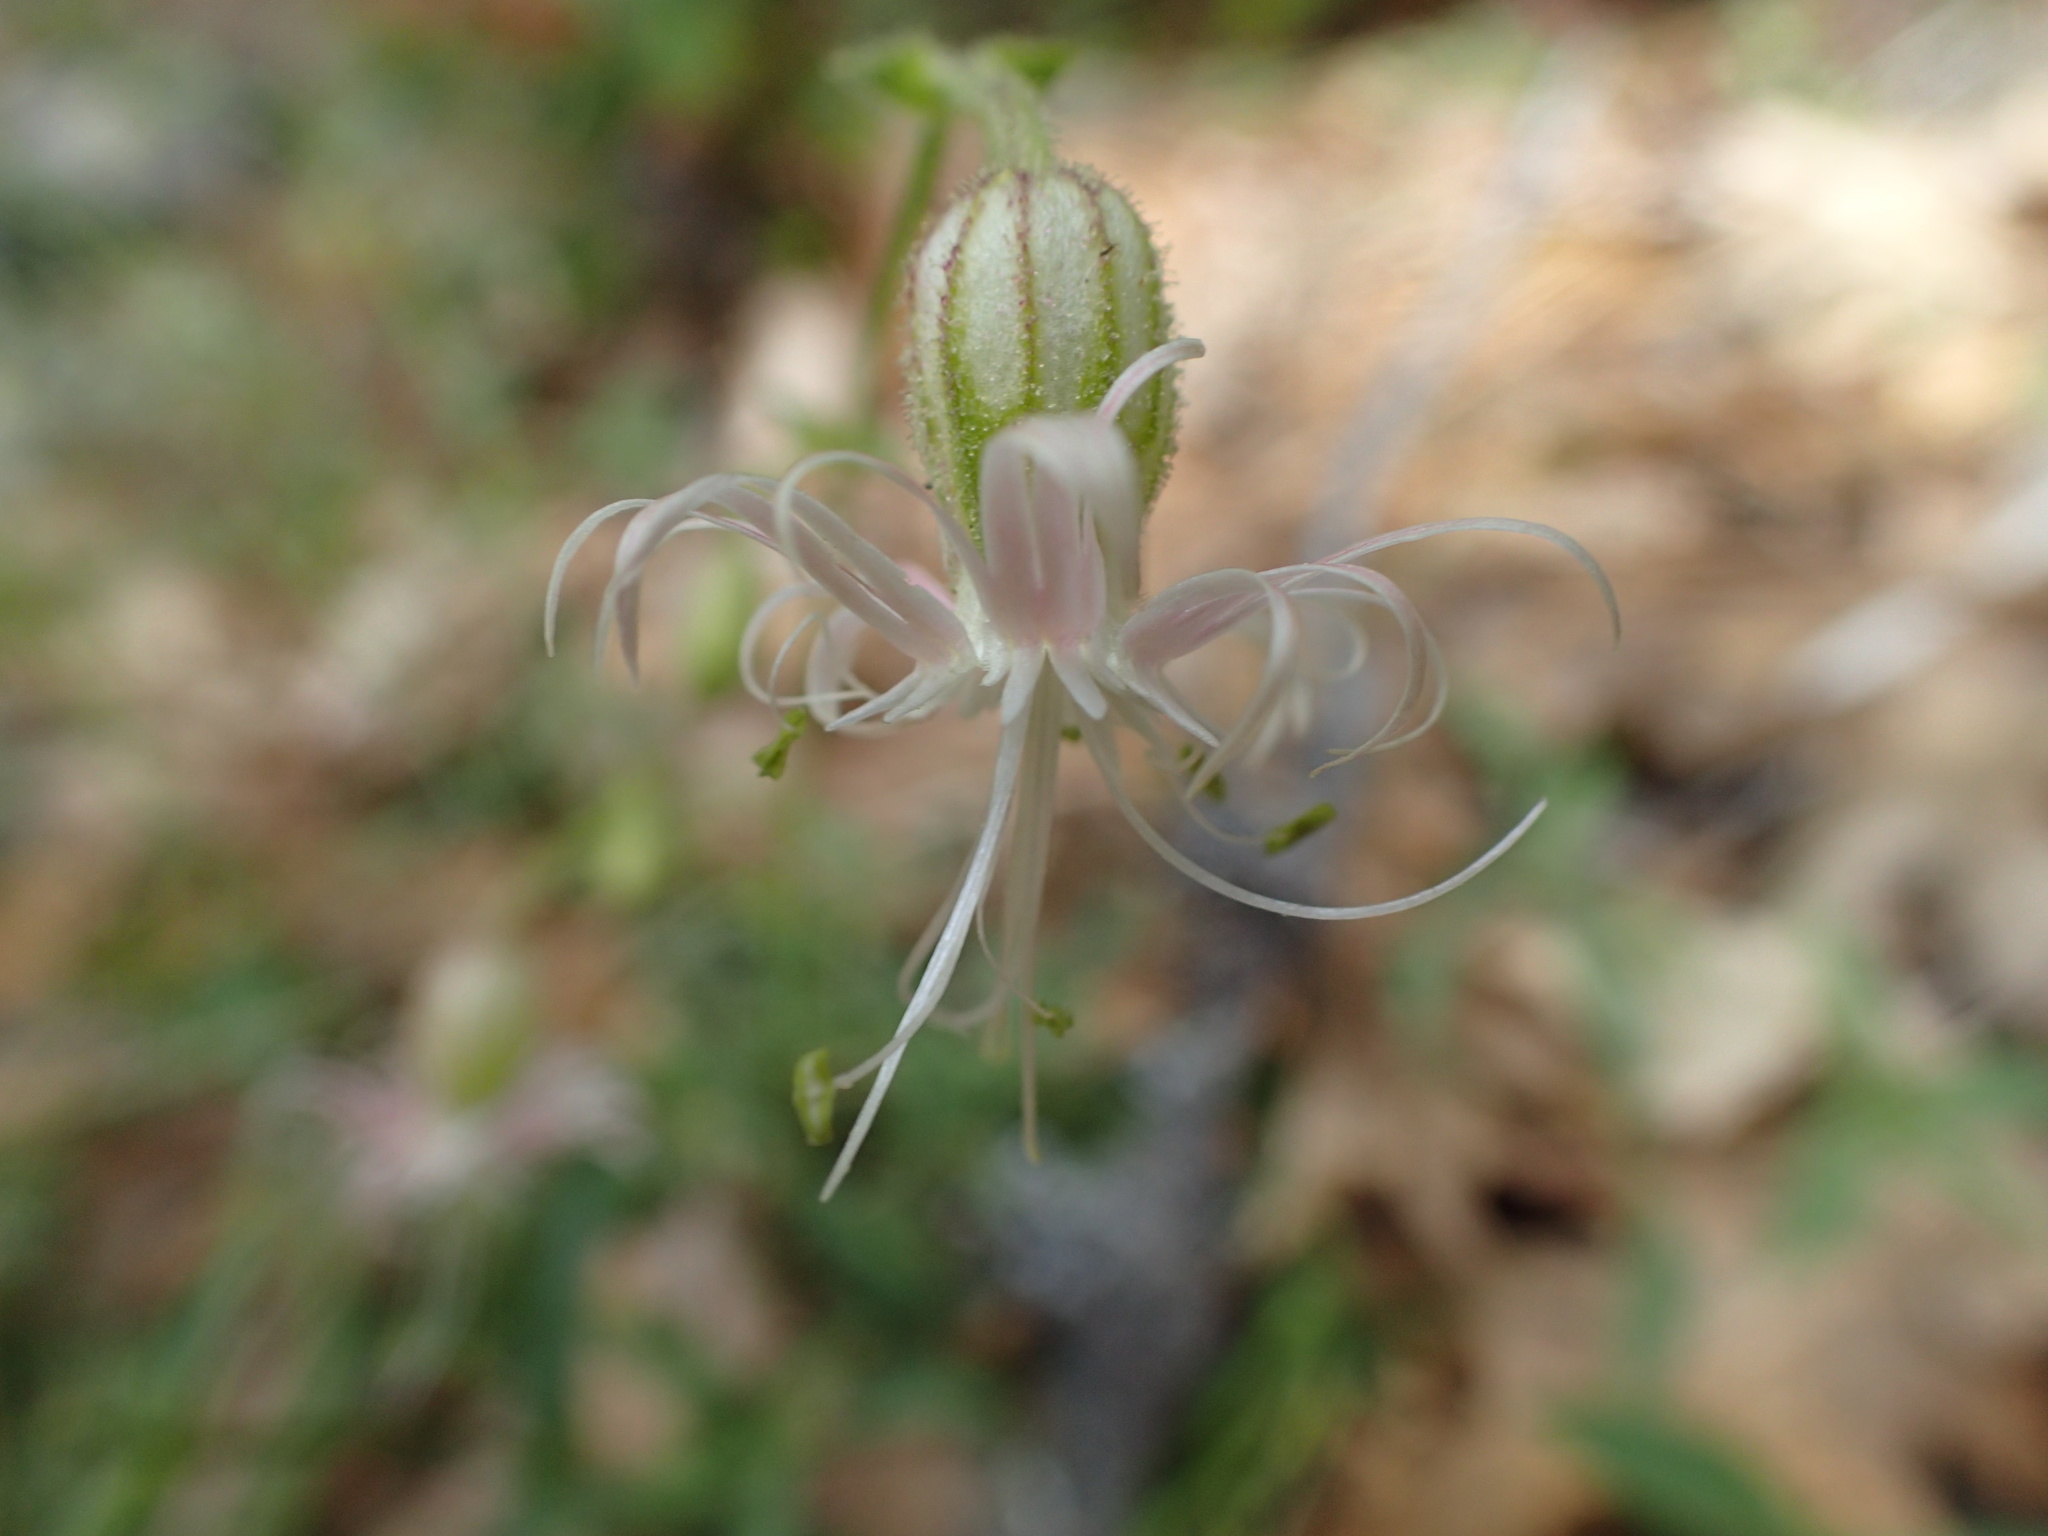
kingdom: Plantae
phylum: Tracheophyta
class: Magnoliopsida
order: Caryophyllales
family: Caryophyllaceae
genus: Silene
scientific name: Silene lemmonii
